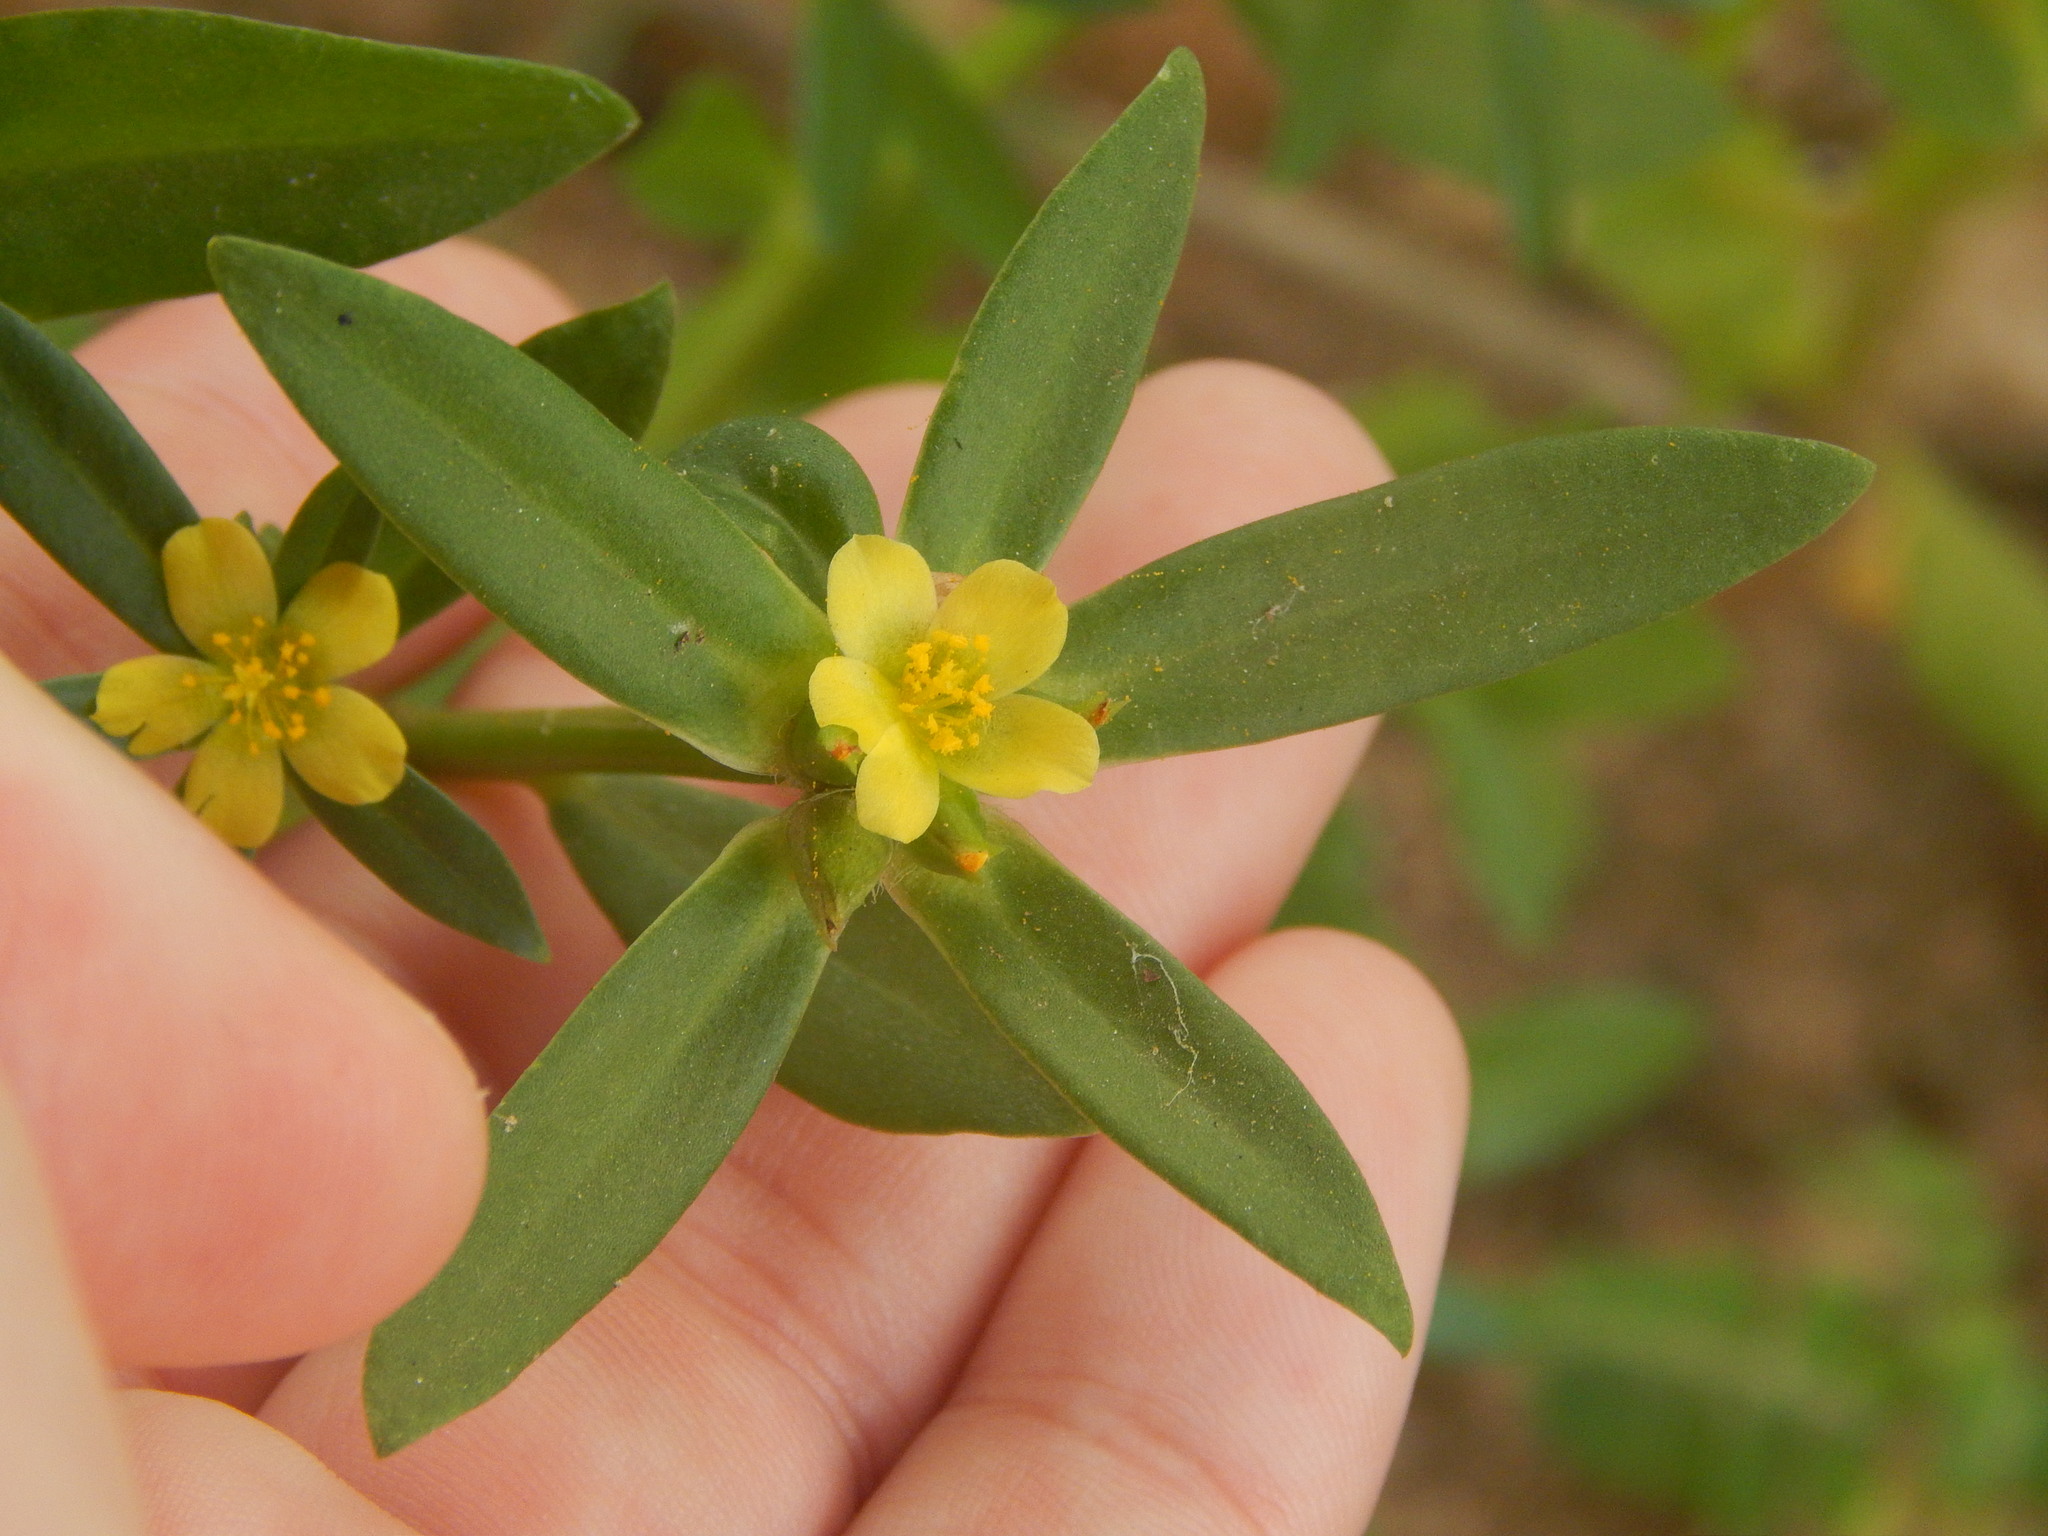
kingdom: Plantae
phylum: Tracheophyta
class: Magnoliopsida
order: Caryophyllales
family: Portulacaceae
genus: Portulaca
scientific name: Portulaca mucronata
